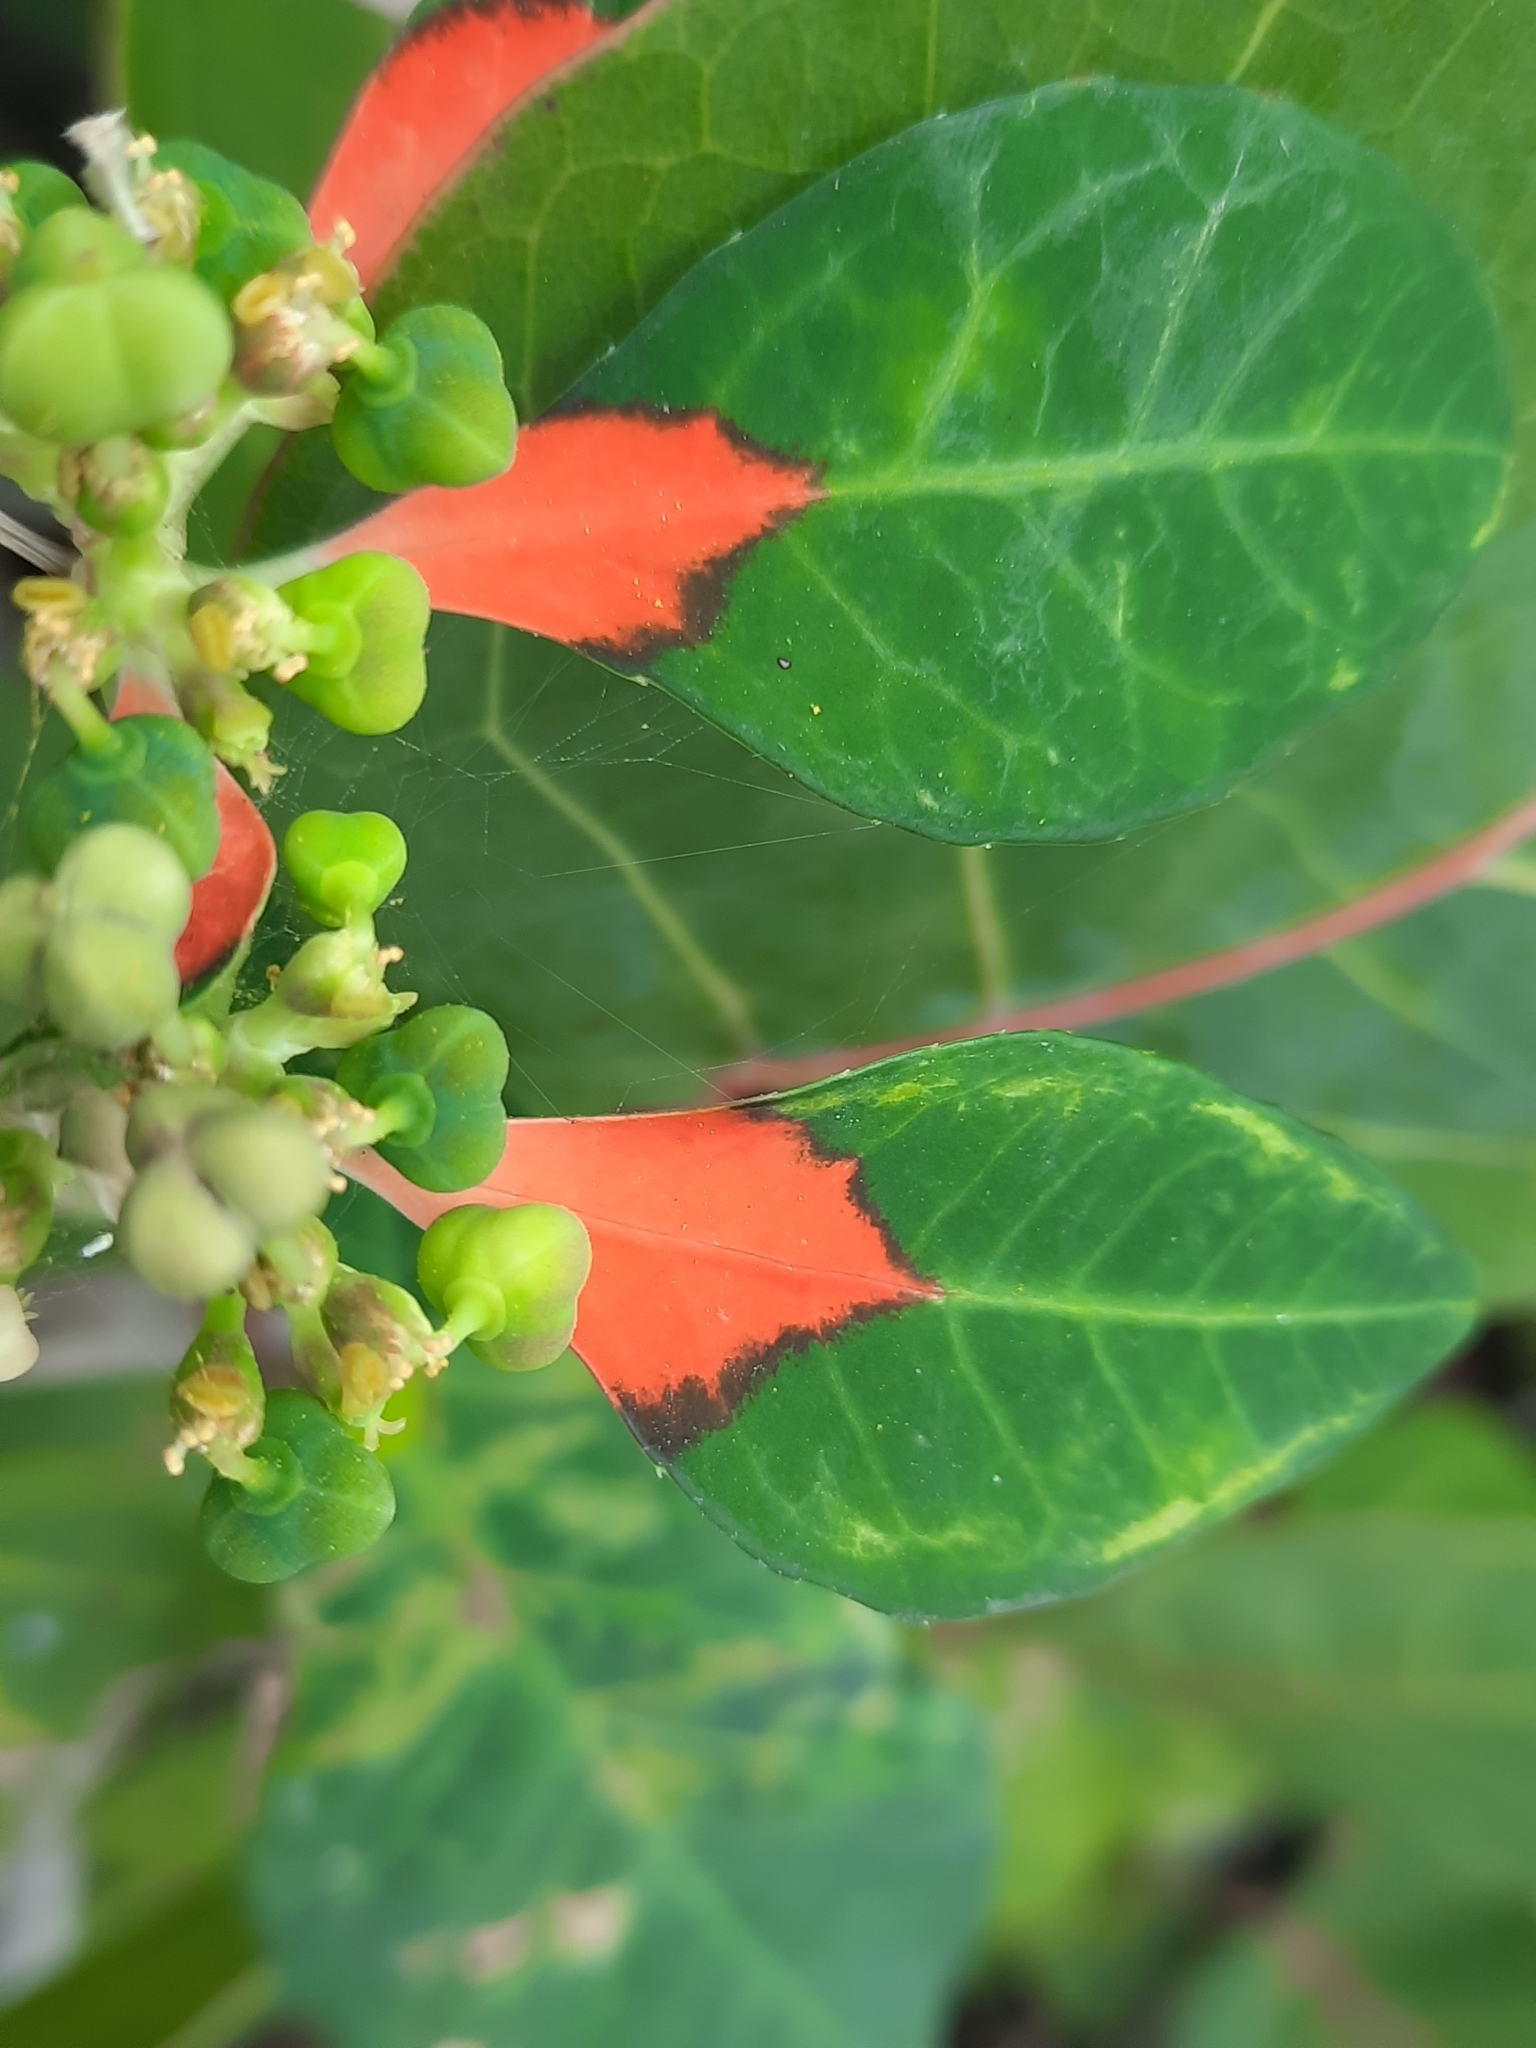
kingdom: Plantae
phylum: Tracheophyta
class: Magnoliopsida
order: Malpighiales
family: Euphorbiaceae
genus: Euphorbia
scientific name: Euphorbia heterophylla
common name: Mexican fireplant
